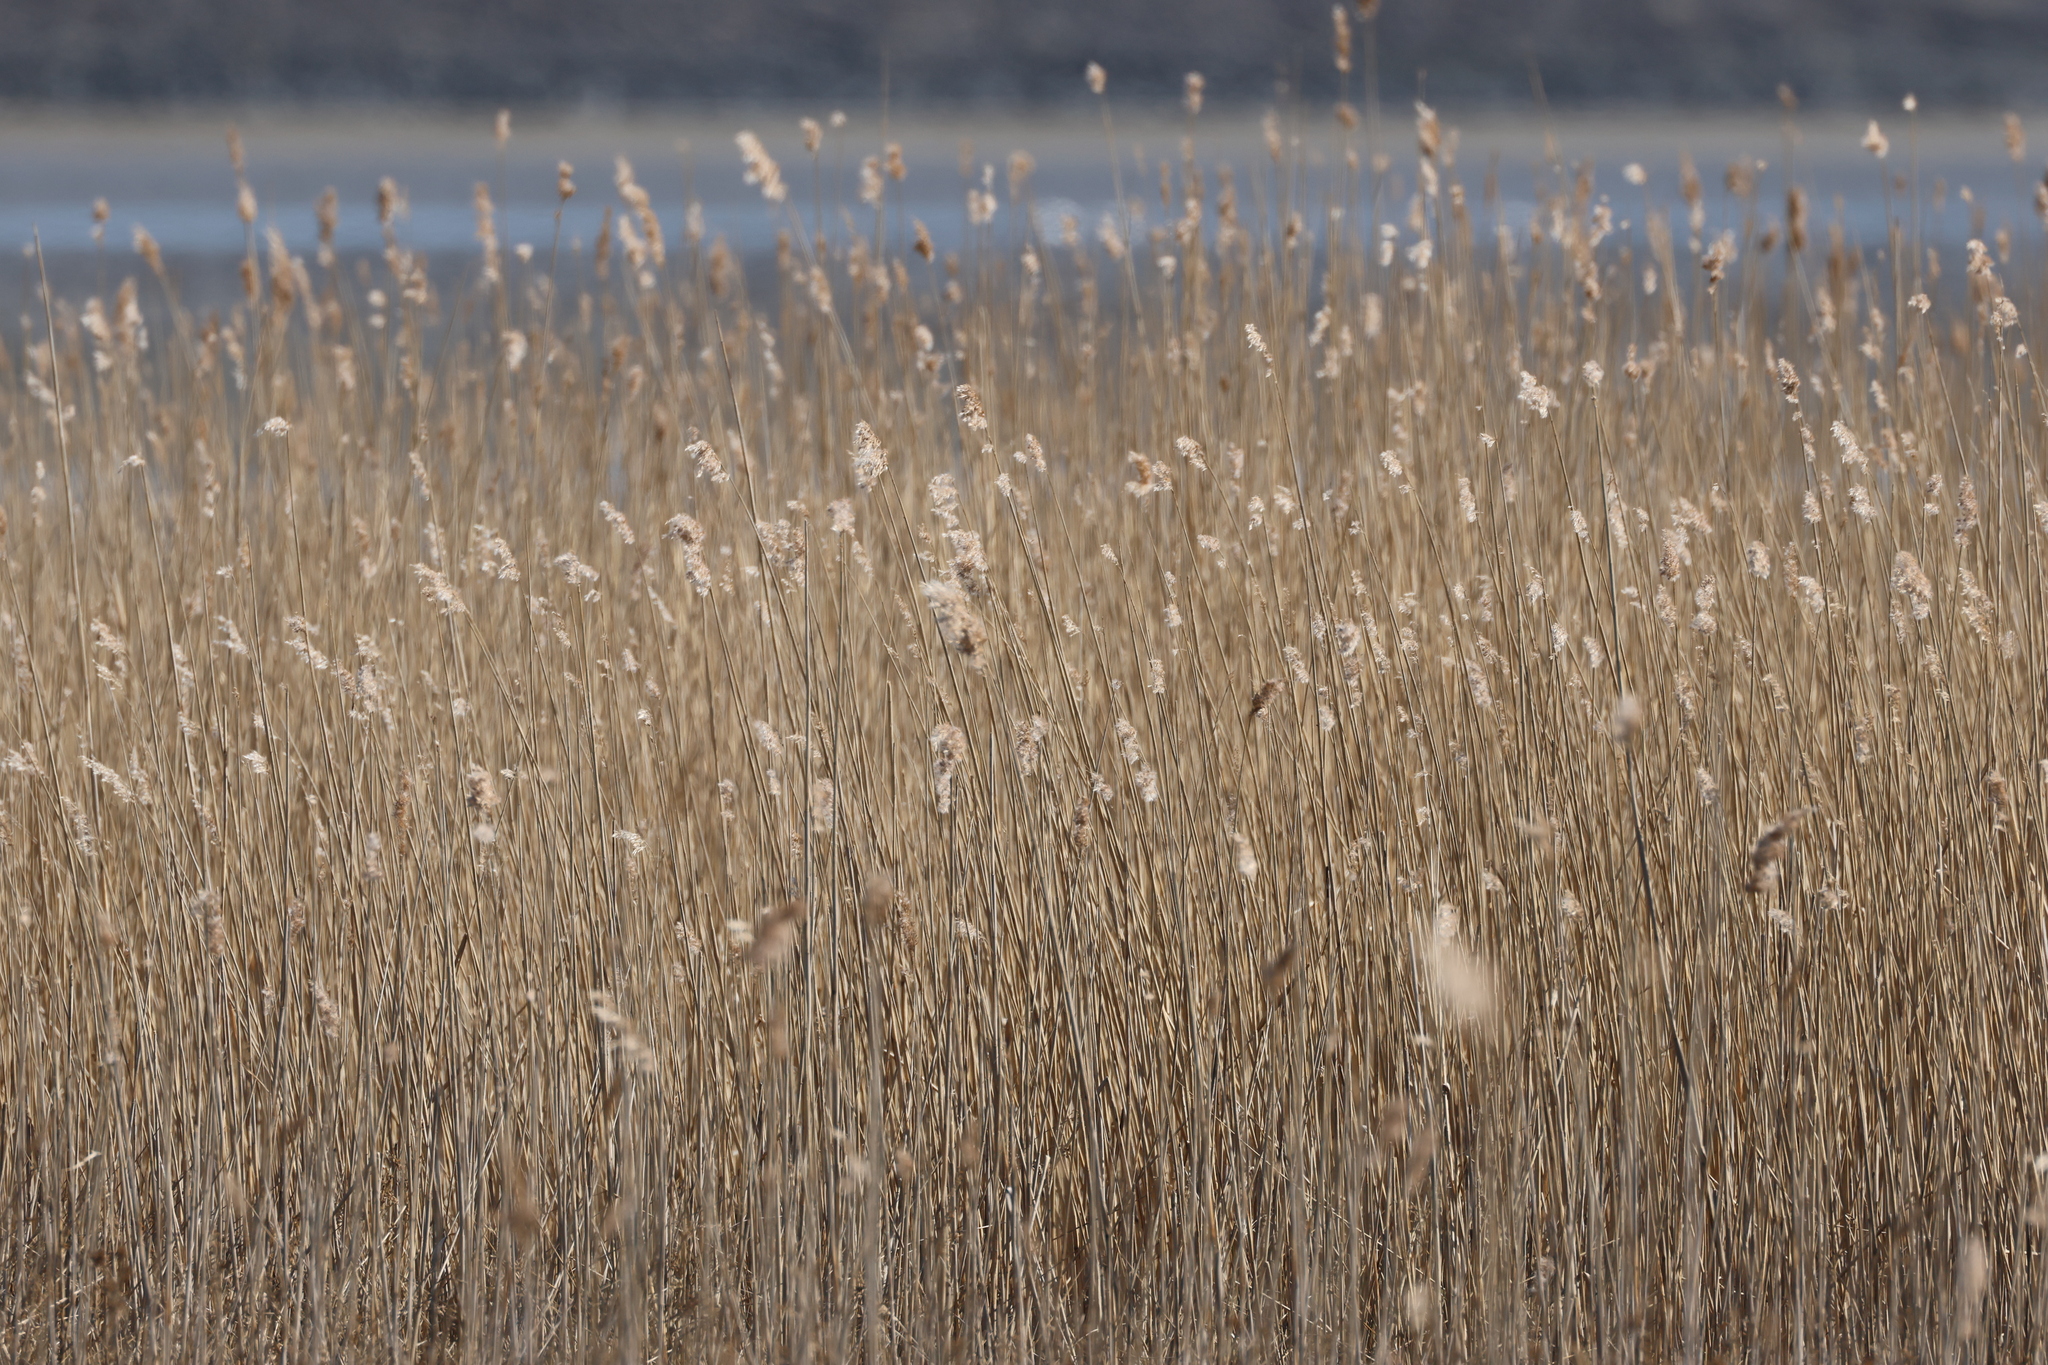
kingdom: Plantae
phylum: Tracheophyta
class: Liliopsida
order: Poales
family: Poaceae
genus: Phragmites
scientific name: Phragmites australis
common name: Common reed
